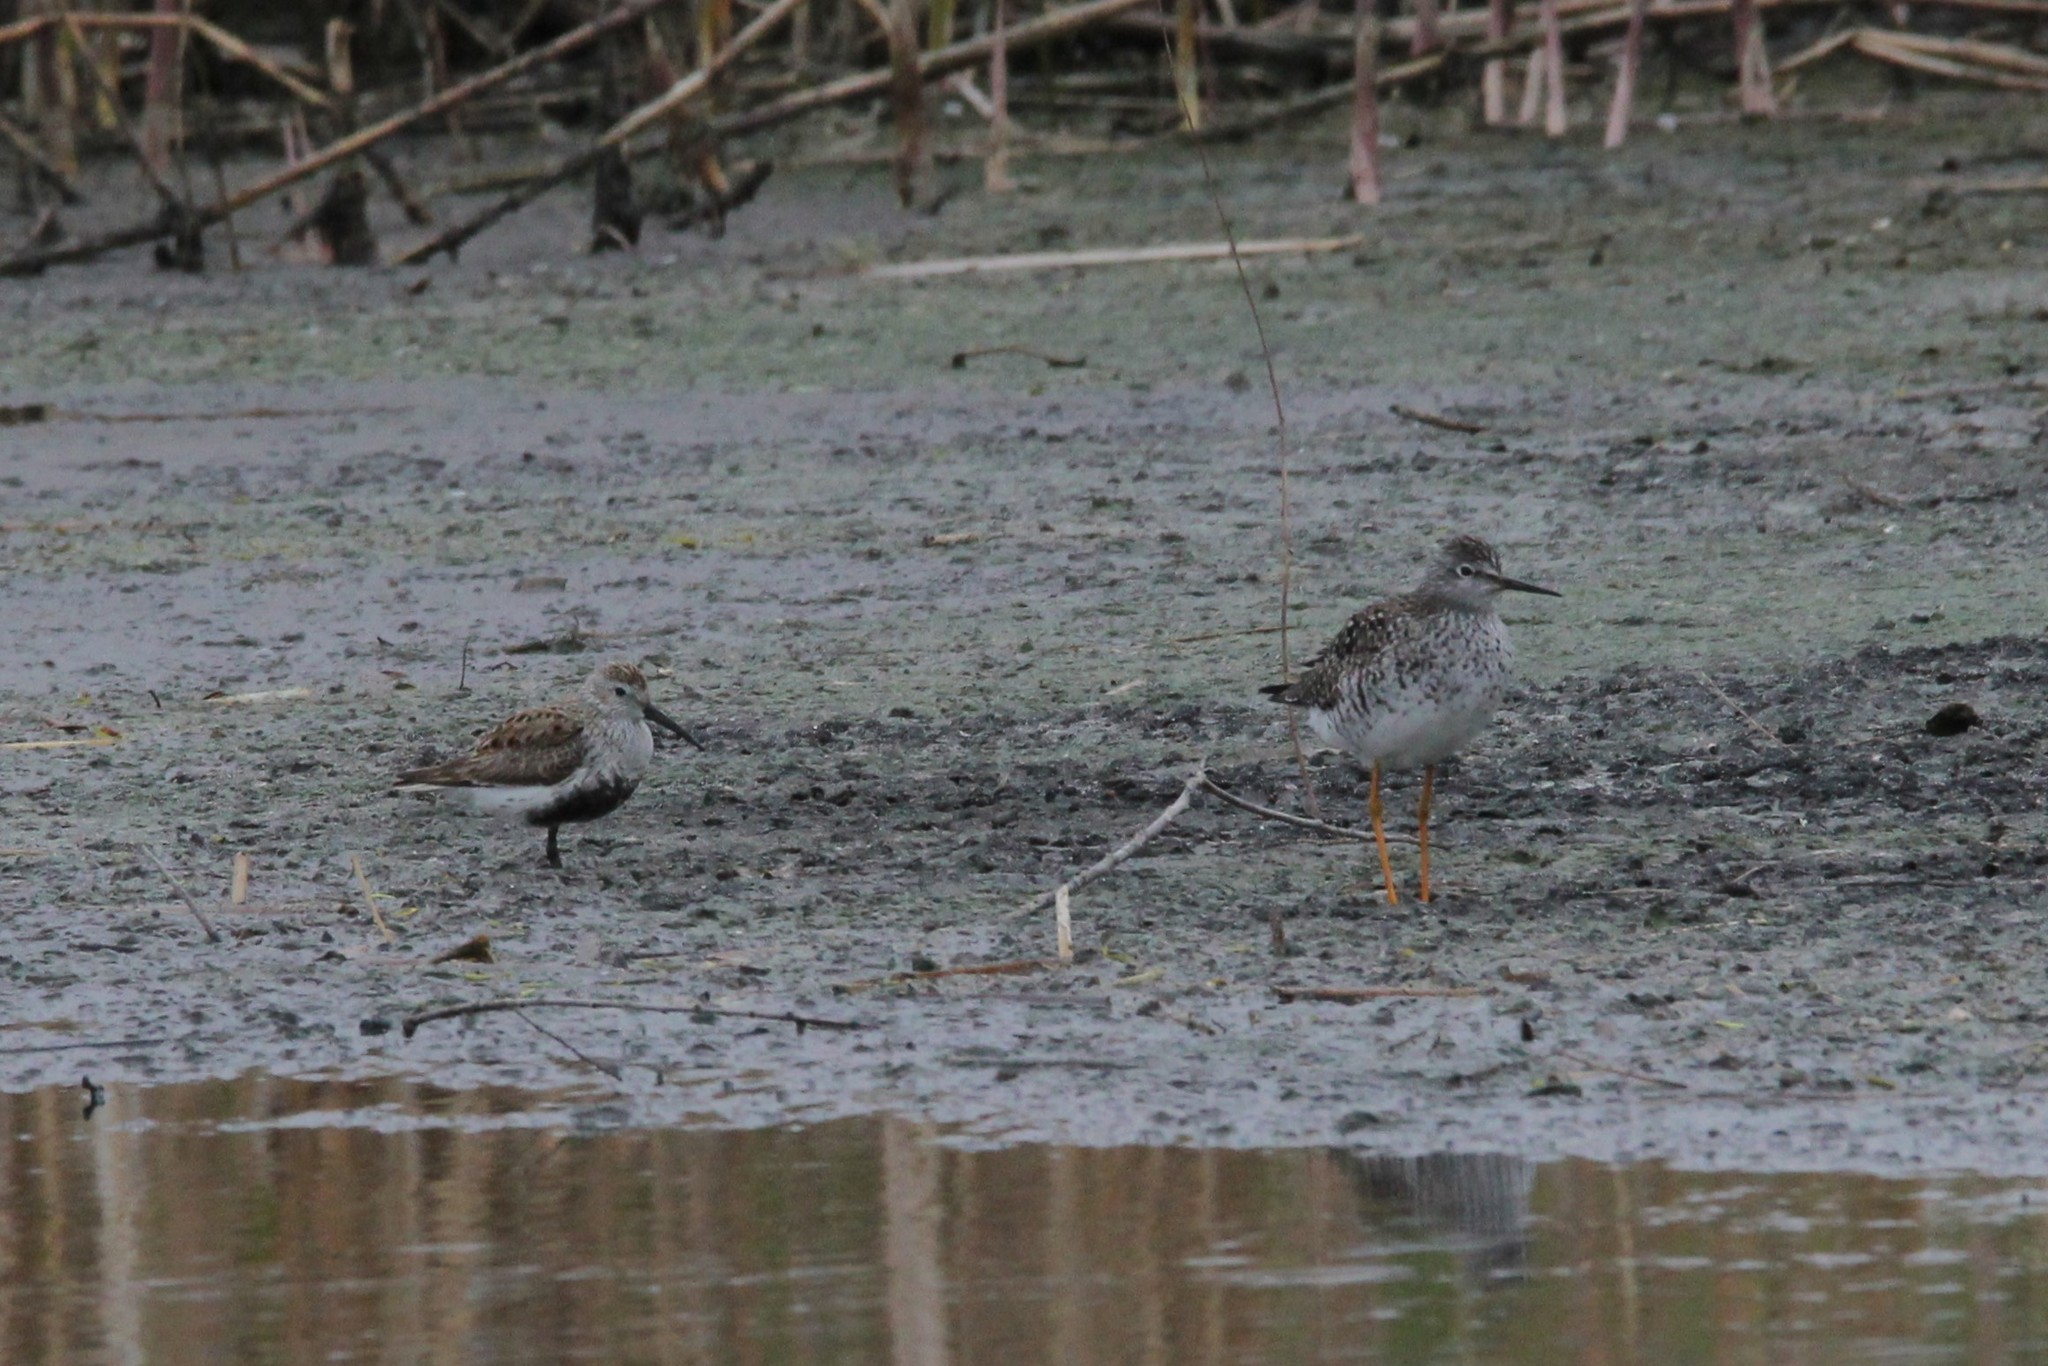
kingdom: Animalia
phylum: Chordata
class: Aves
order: Charadriiformes
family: Scolopacidae
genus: Calidris
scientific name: Calidris alpina
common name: Dunlin
